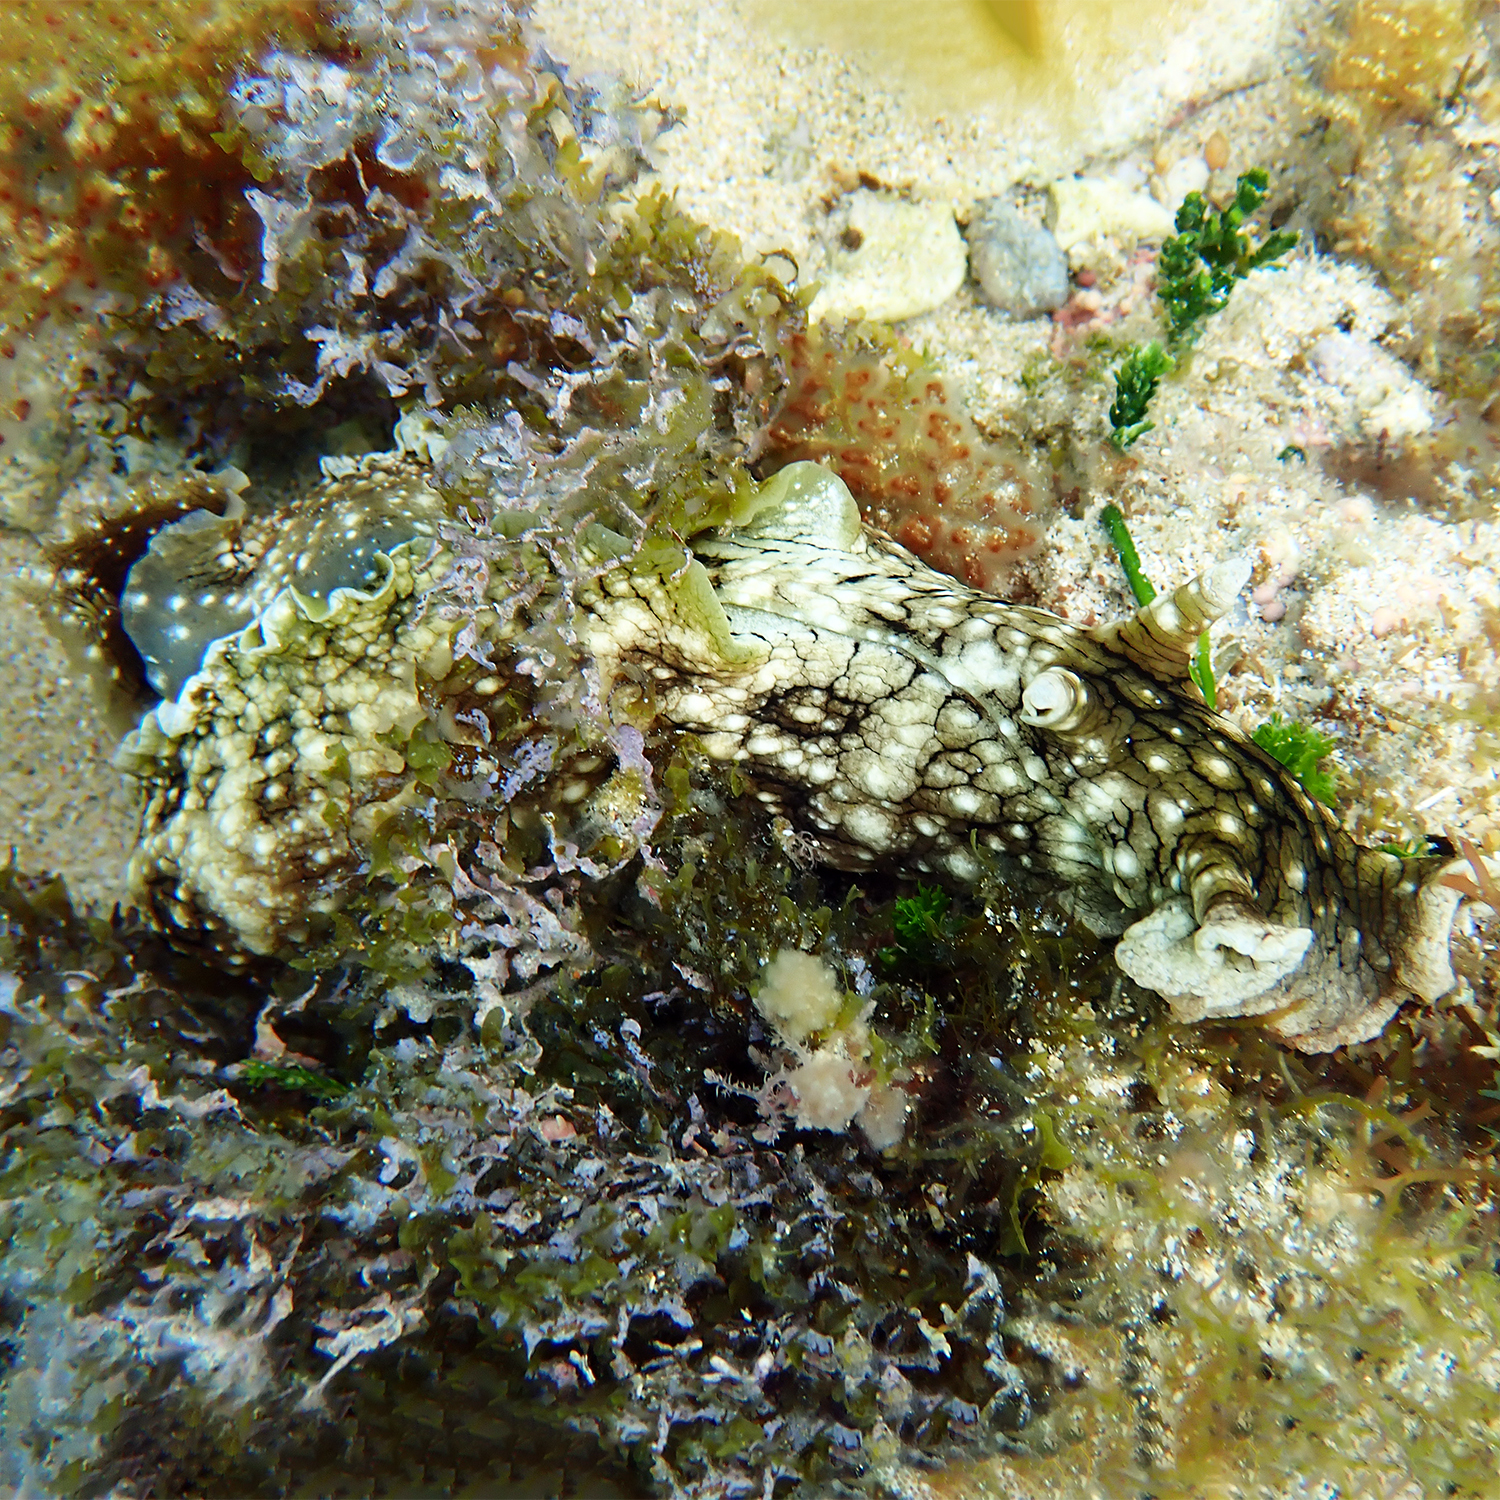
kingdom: Animalia
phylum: Mollusca
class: Gastropoda
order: Aplysiida
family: Aplysiidae
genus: Aplysia
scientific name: Aplysia argus
